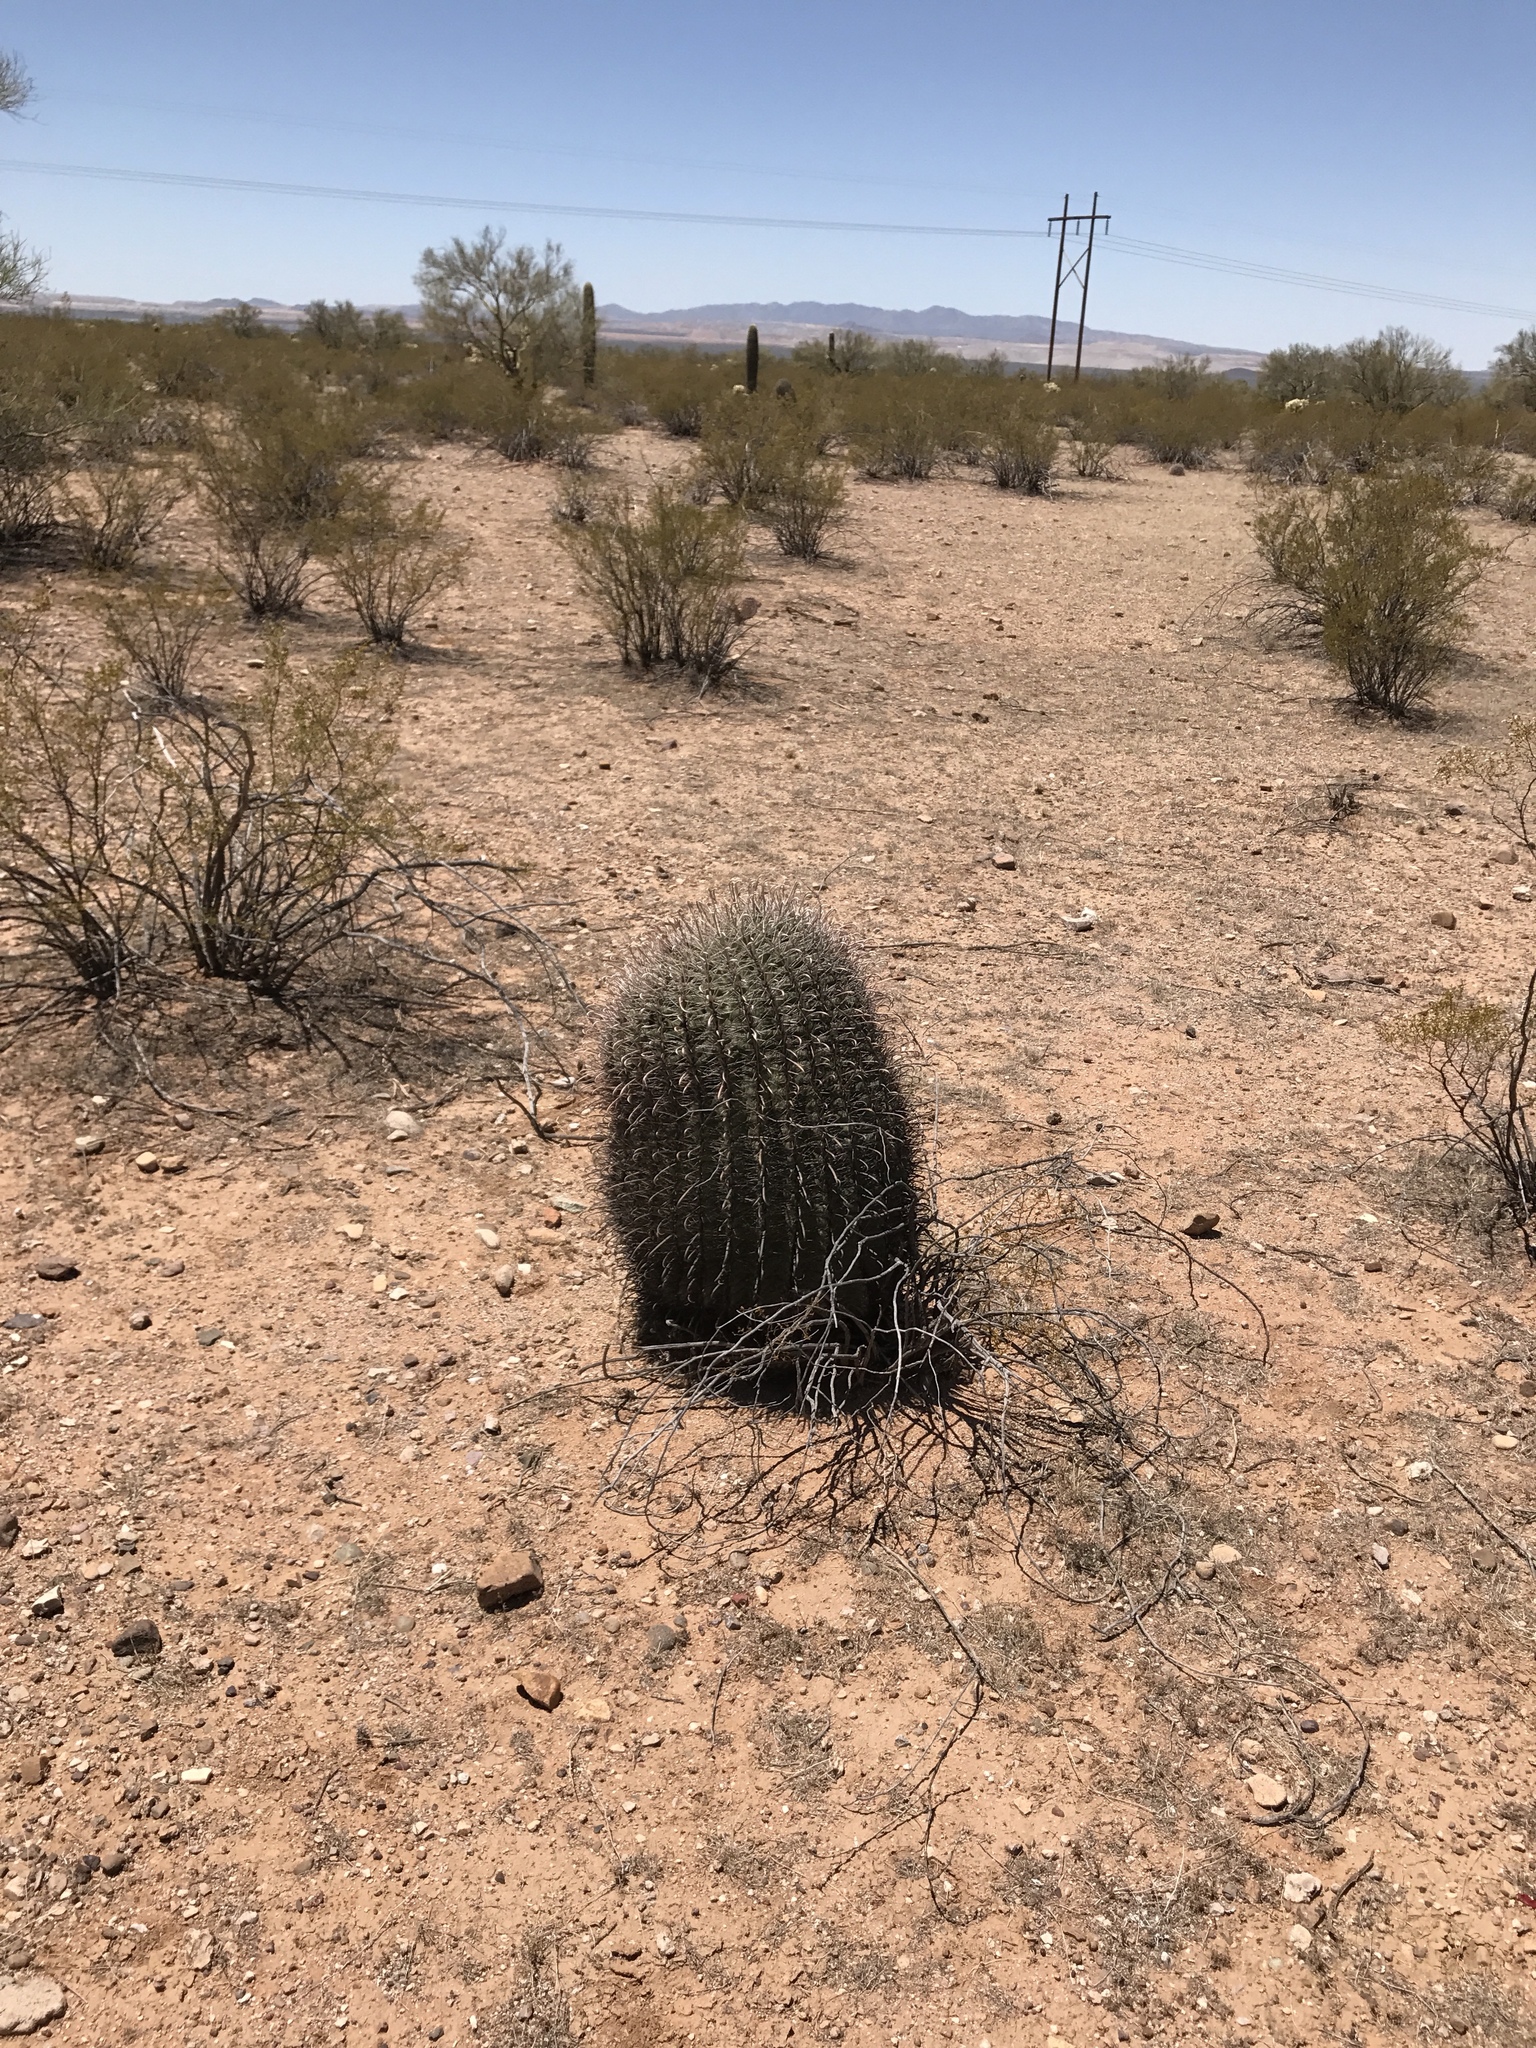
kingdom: Plantae
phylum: Tracheophyta
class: Magnoliopsida
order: Caryophyllales
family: Cactaceae
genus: Ferocactus
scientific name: Ferocactus wislizeni
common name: Candy barrel cactus
